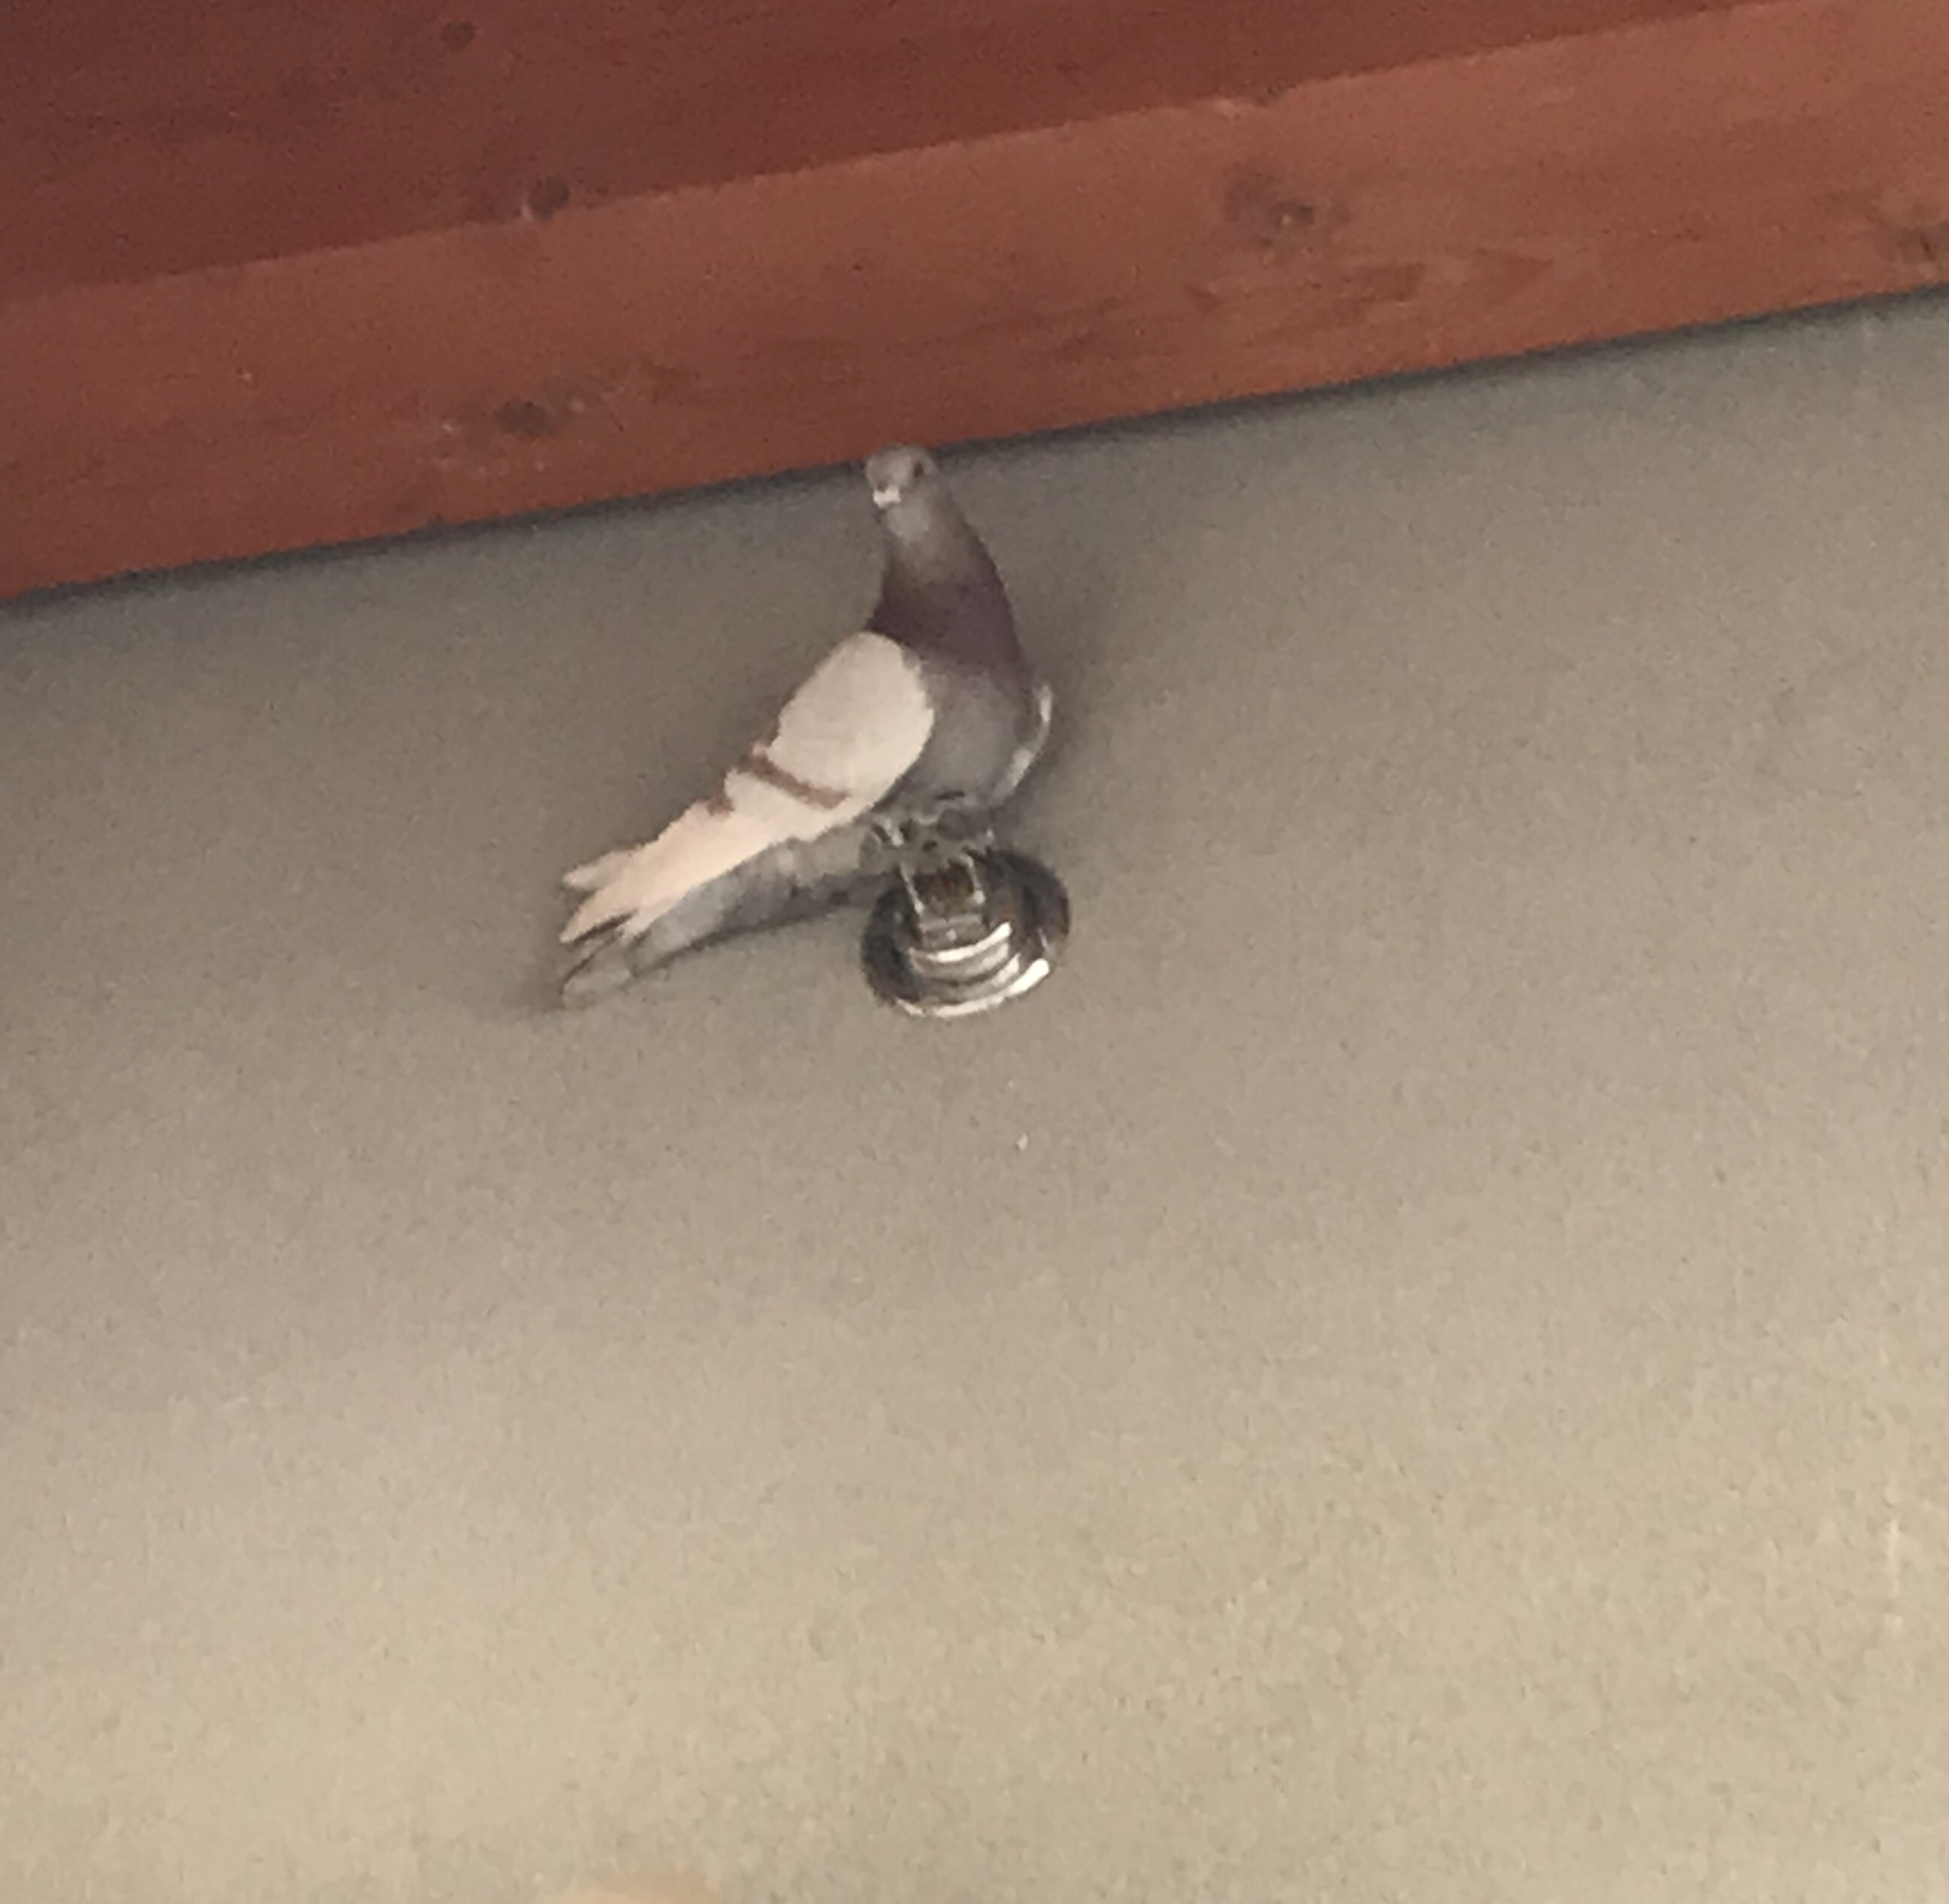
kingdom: Animalia
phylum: Chordata
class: Aves
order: Columbiformes
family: Columbidae
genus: Columba
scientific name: Columba livia
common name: Rock pigeon
